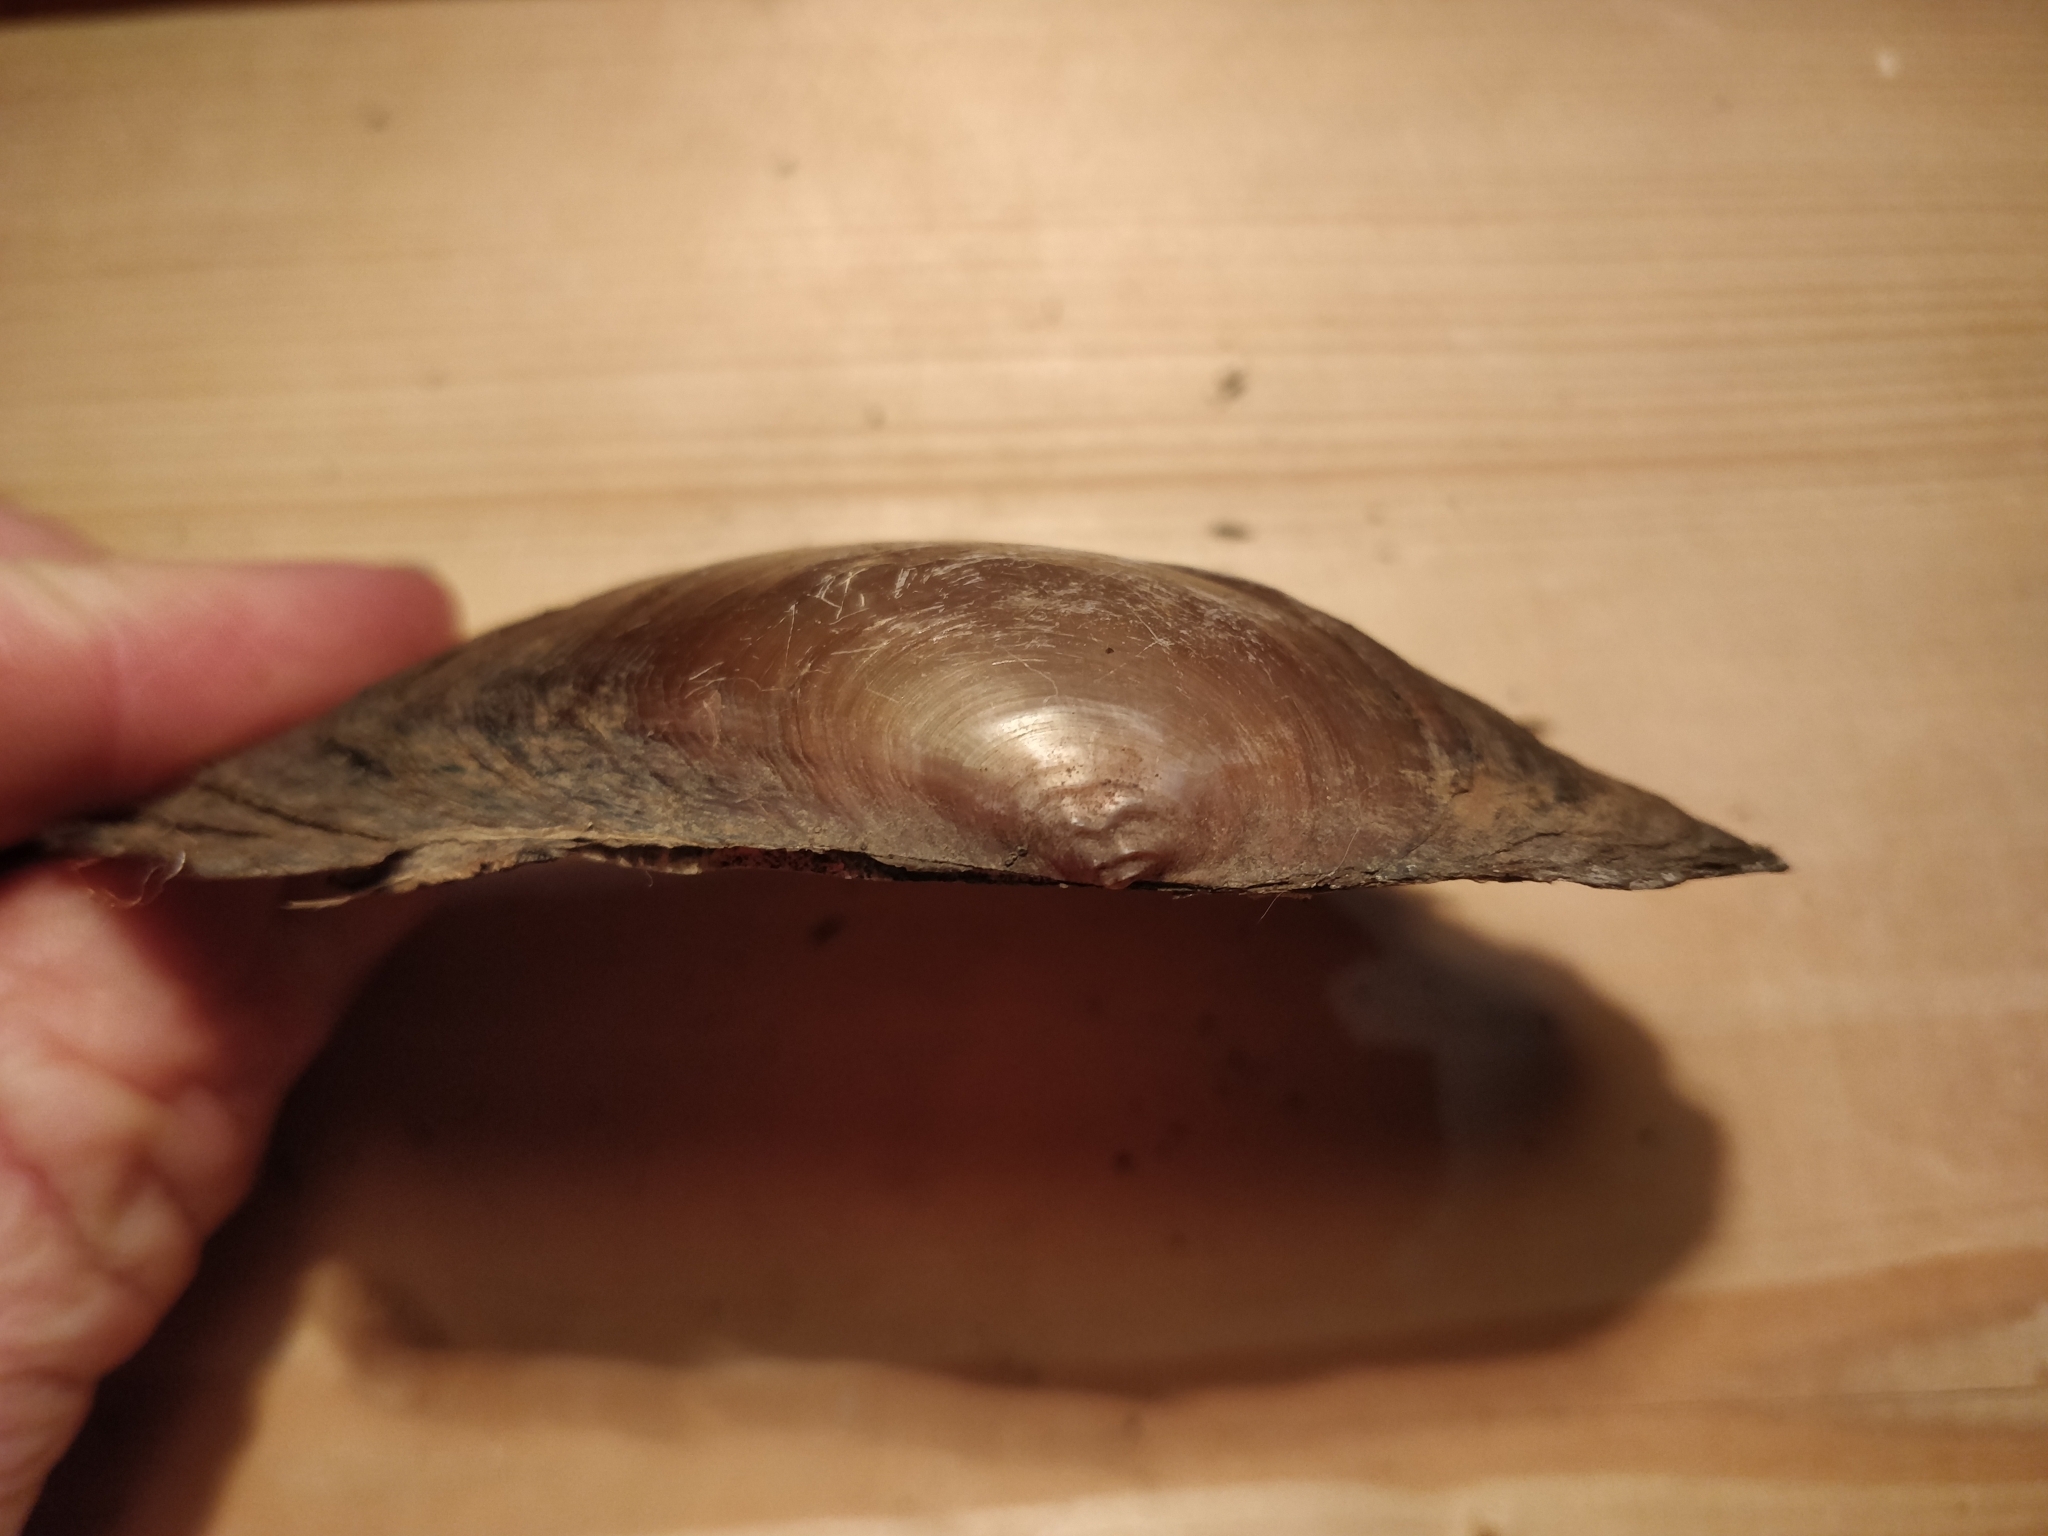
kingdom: Animalia
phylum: Mollusca
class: Bivalvia
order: Unionida
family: Unionidae
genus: Pyganodon
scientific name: Pyganodon grandis
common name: Giant floater
